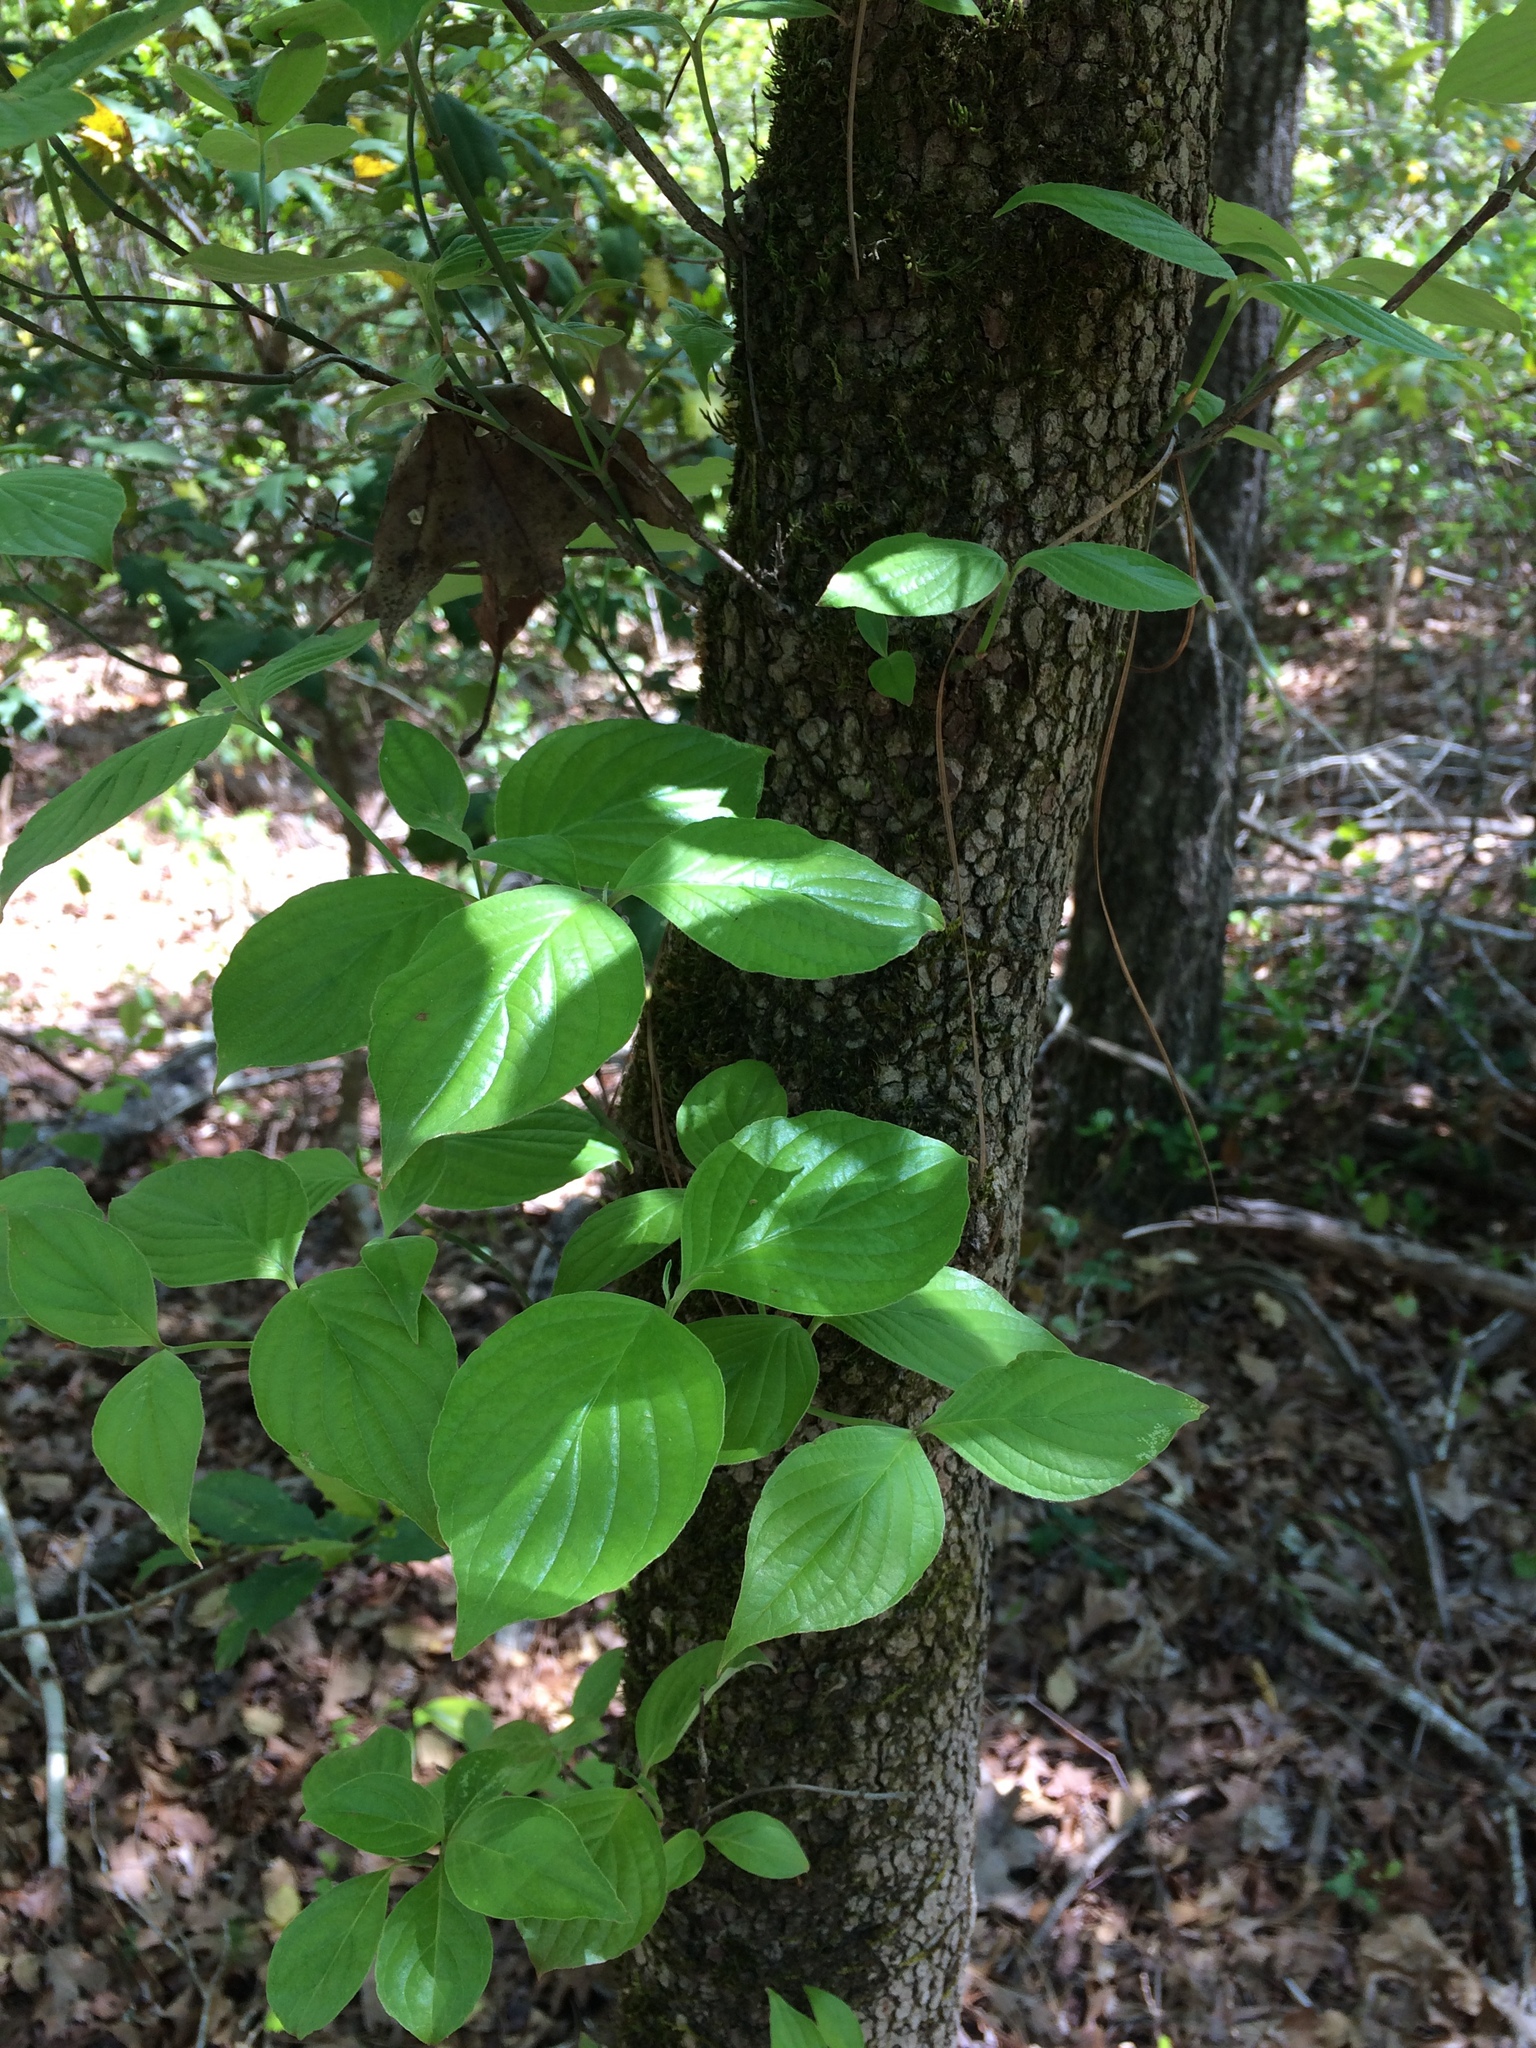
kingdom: Plantae
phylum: Tracheophyta
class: Magnoliopsida
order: Cornales
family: Cornaceae
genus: Cornus
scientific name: Cornus florida
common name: Flowering dogwood
